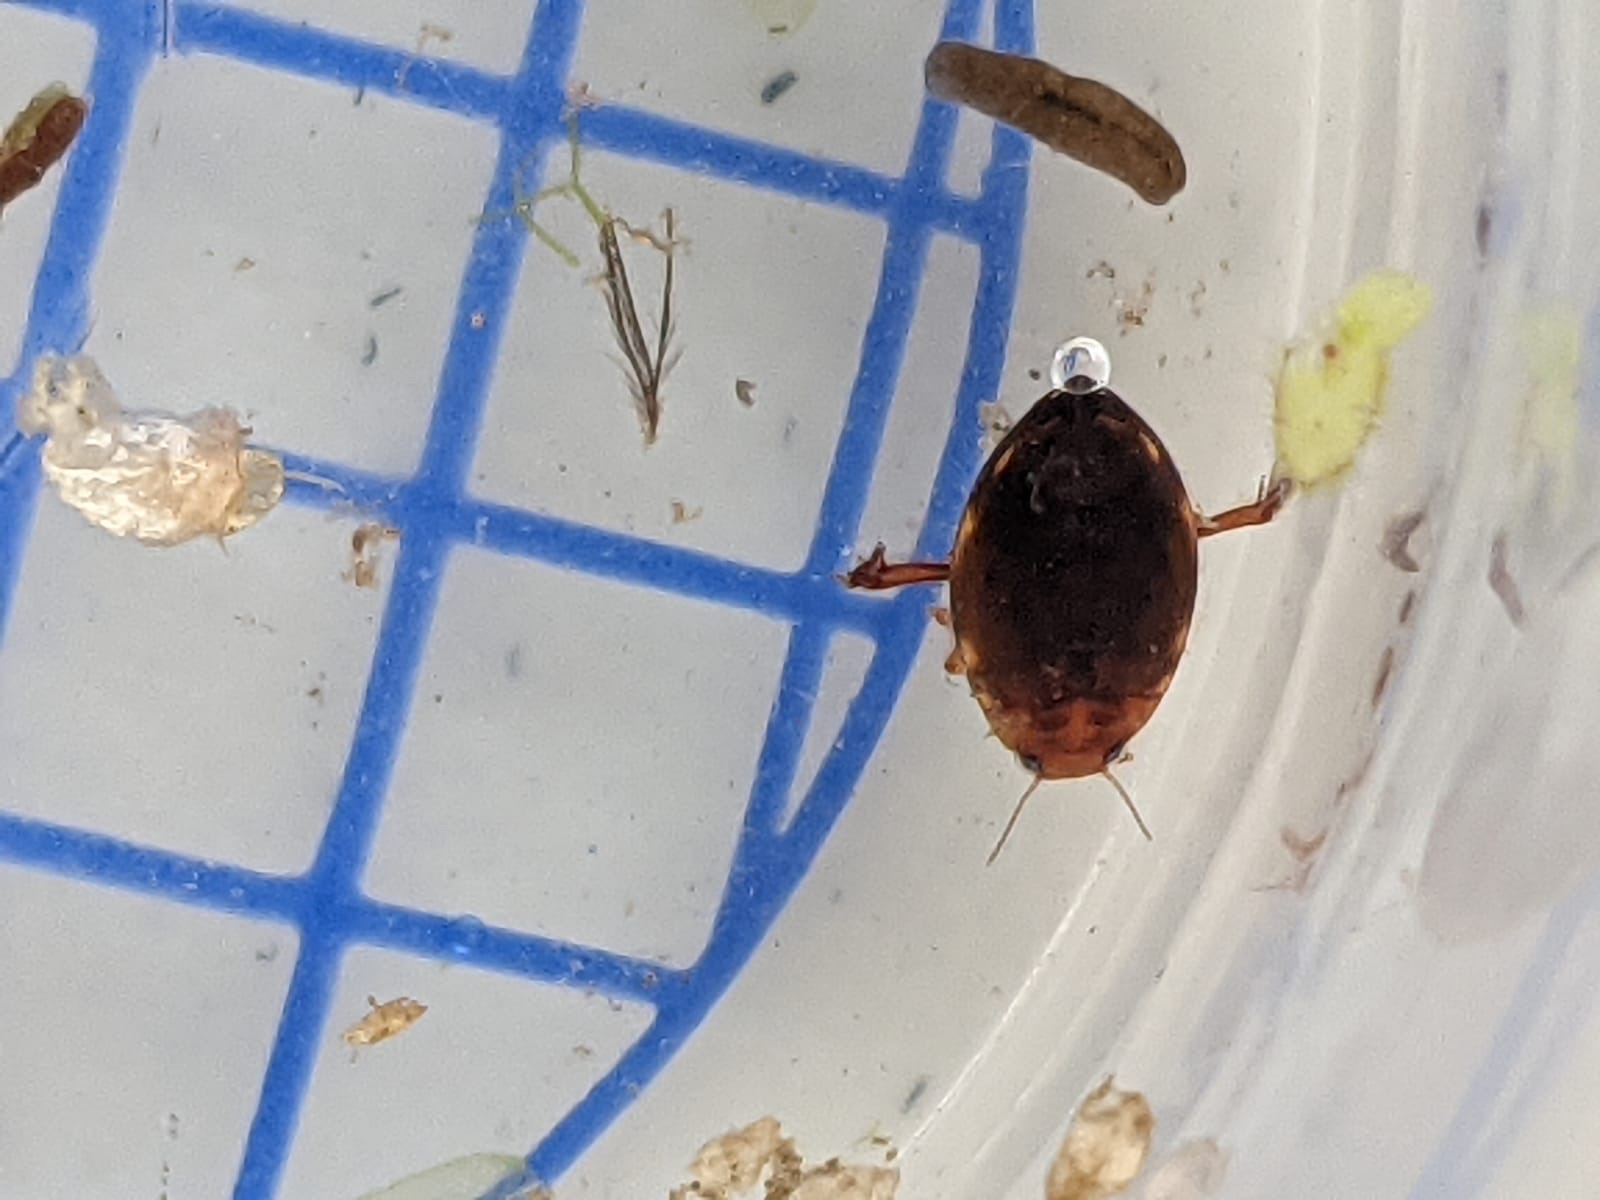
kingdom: Animalia
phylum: Arthropoda
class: Insecta
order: Coleoptera
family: Dytiscidae
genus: Hyphydrus
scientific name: Hyphydrus ovatus
